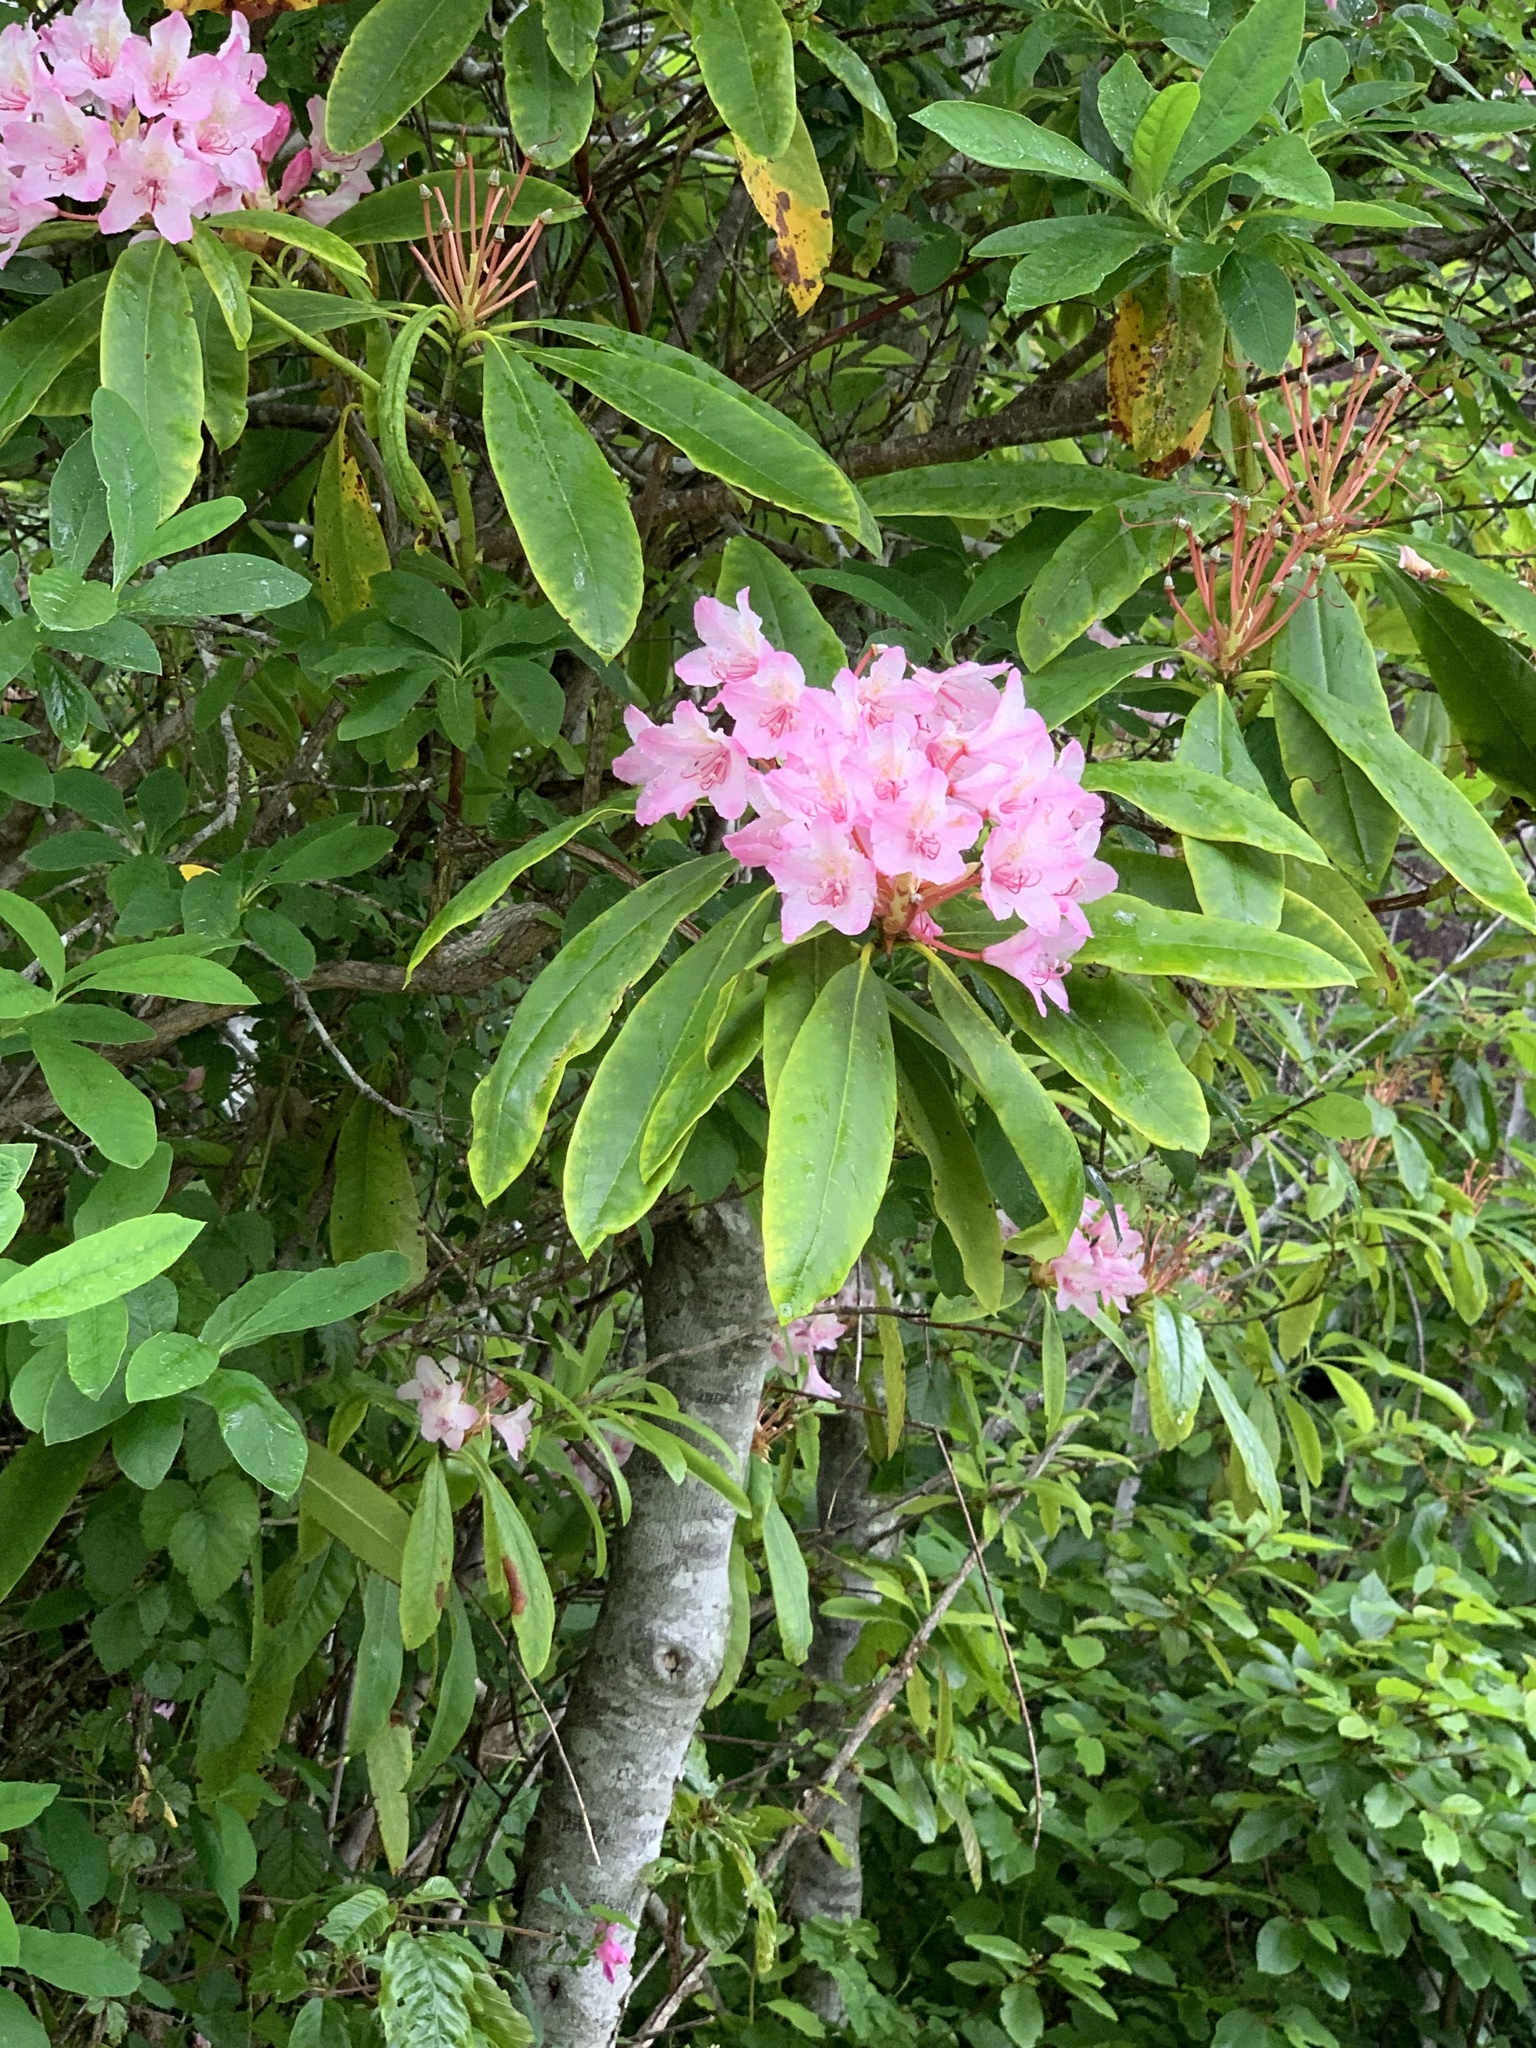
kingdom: Plantae
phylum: Tracheophyta
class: Magnoliopsida
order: Ericales
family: Ericaceae
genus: Rhododendron
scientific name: Rhododendron macrophyllum
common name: California rose bay
